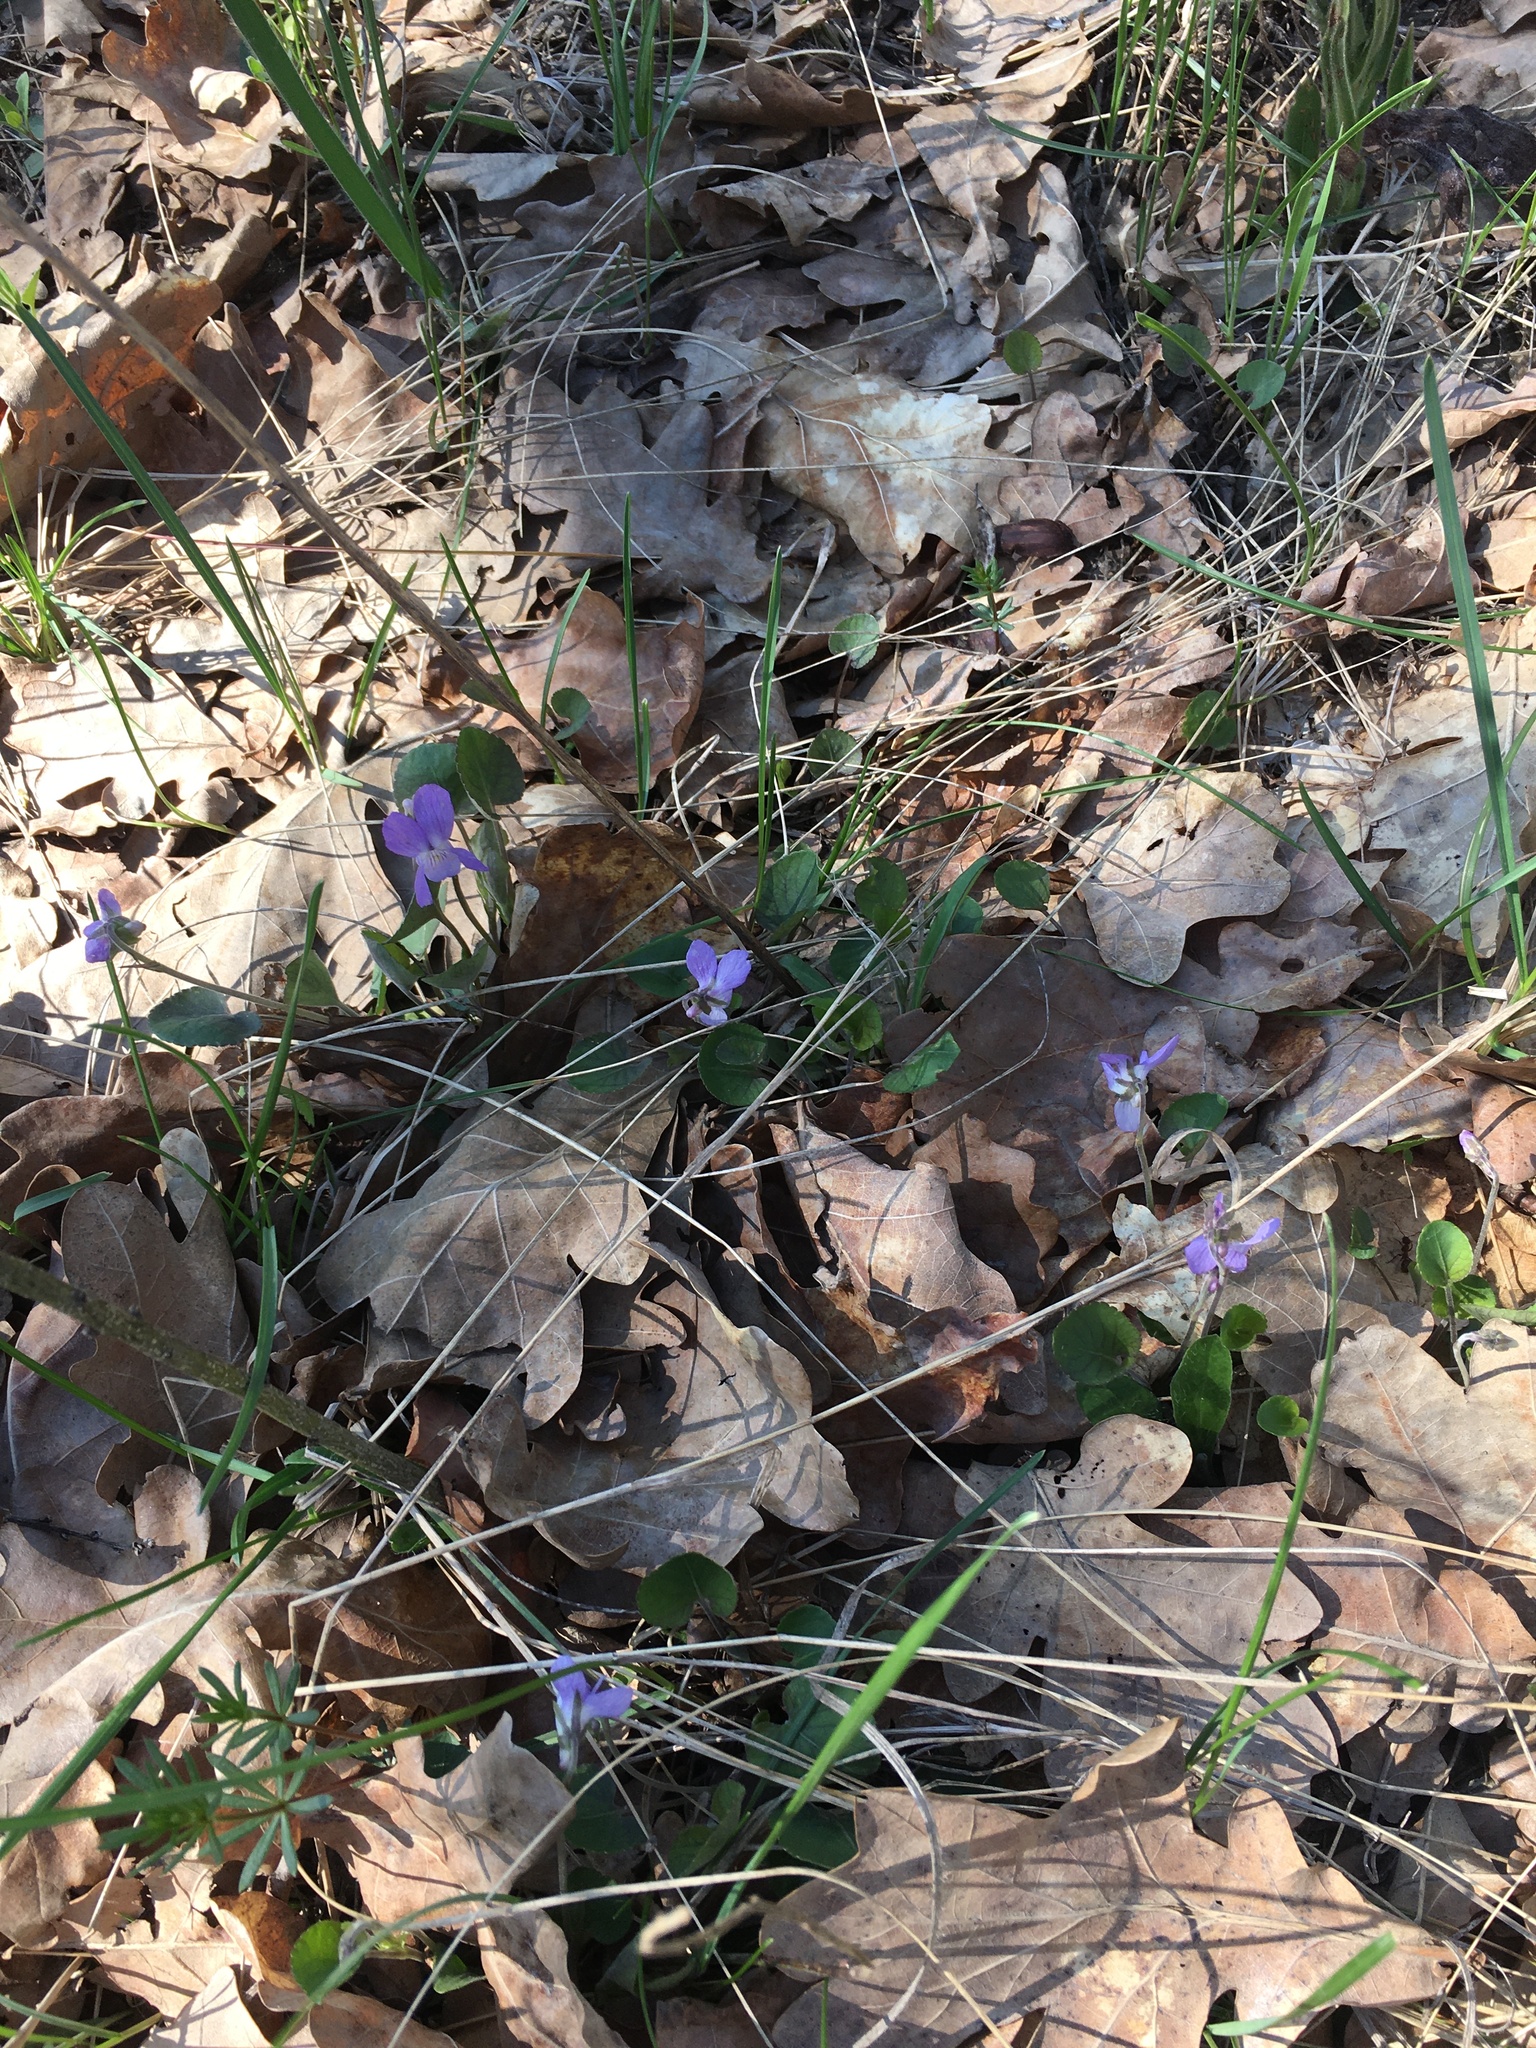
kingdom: Plantae
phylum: Tracheophyta
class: Magnoliopsida
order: Malpighiales
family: Violaceae
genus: Viola
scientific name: Viola rupestris
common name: Teesdale violet
